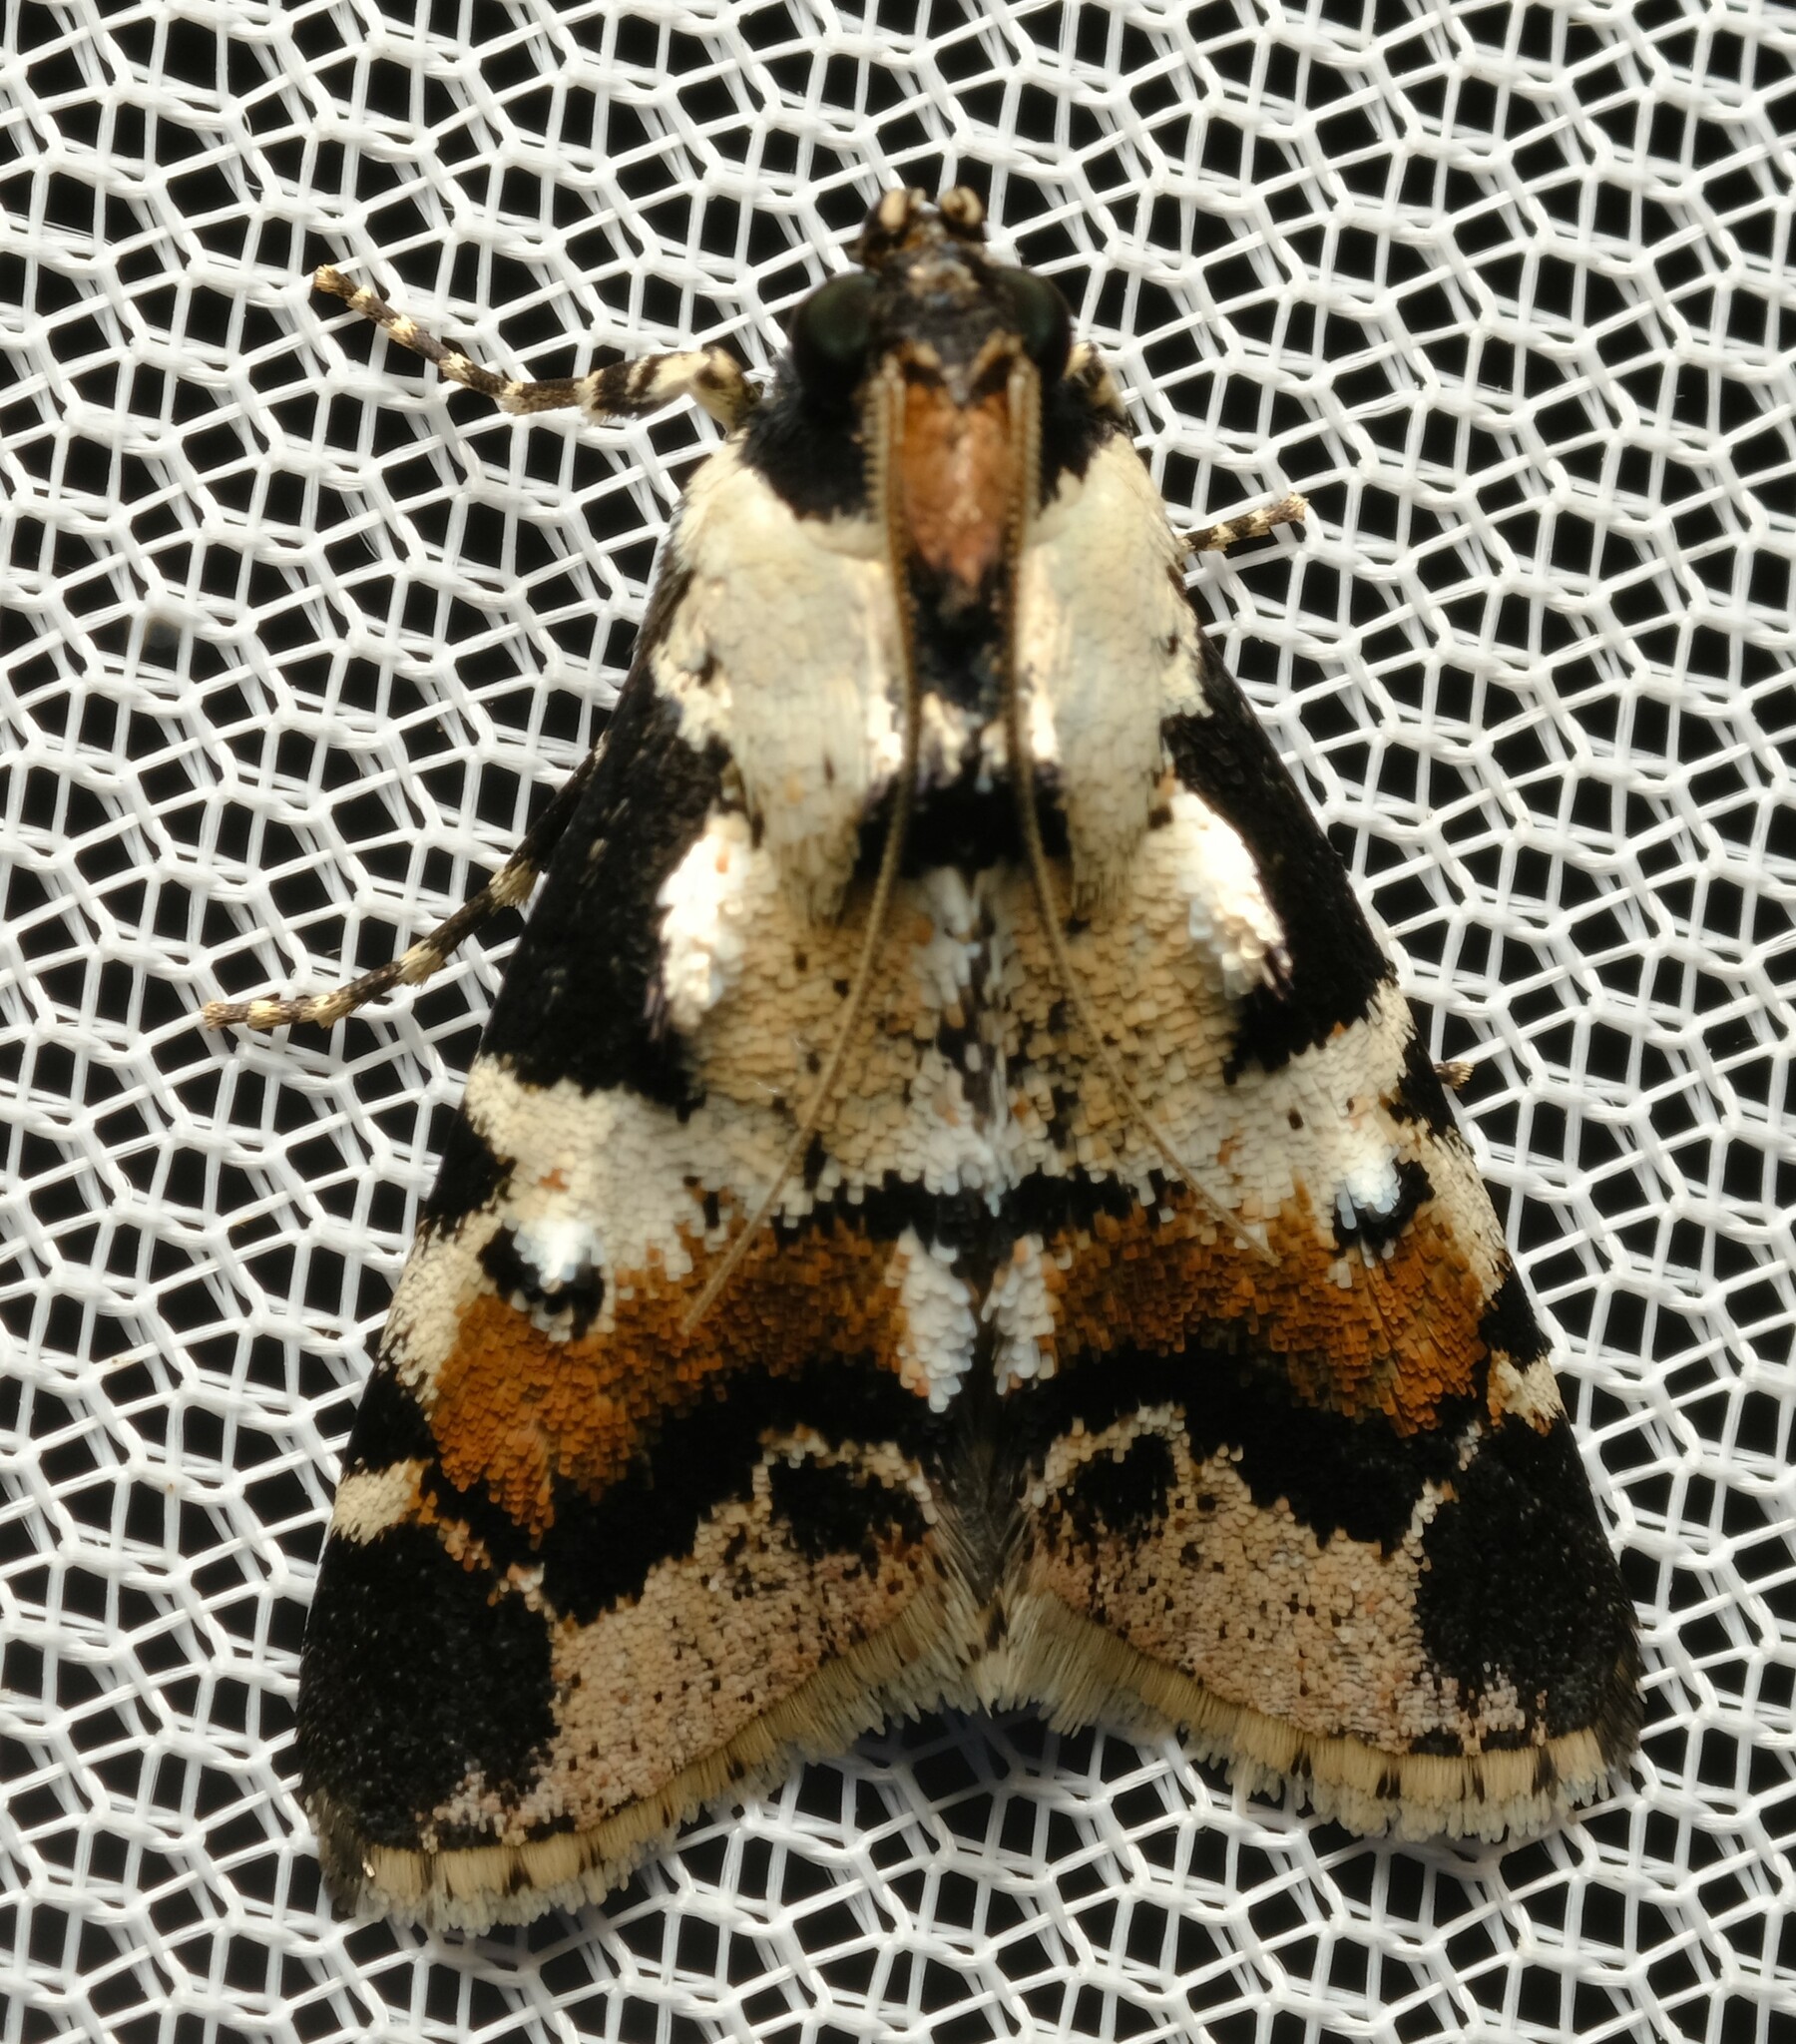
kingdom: Animalia
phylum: Arthropoda
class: Insecta
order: Lepidoptera
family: Pyralidae
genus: Orthaga
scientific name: Orthaga seminivea
